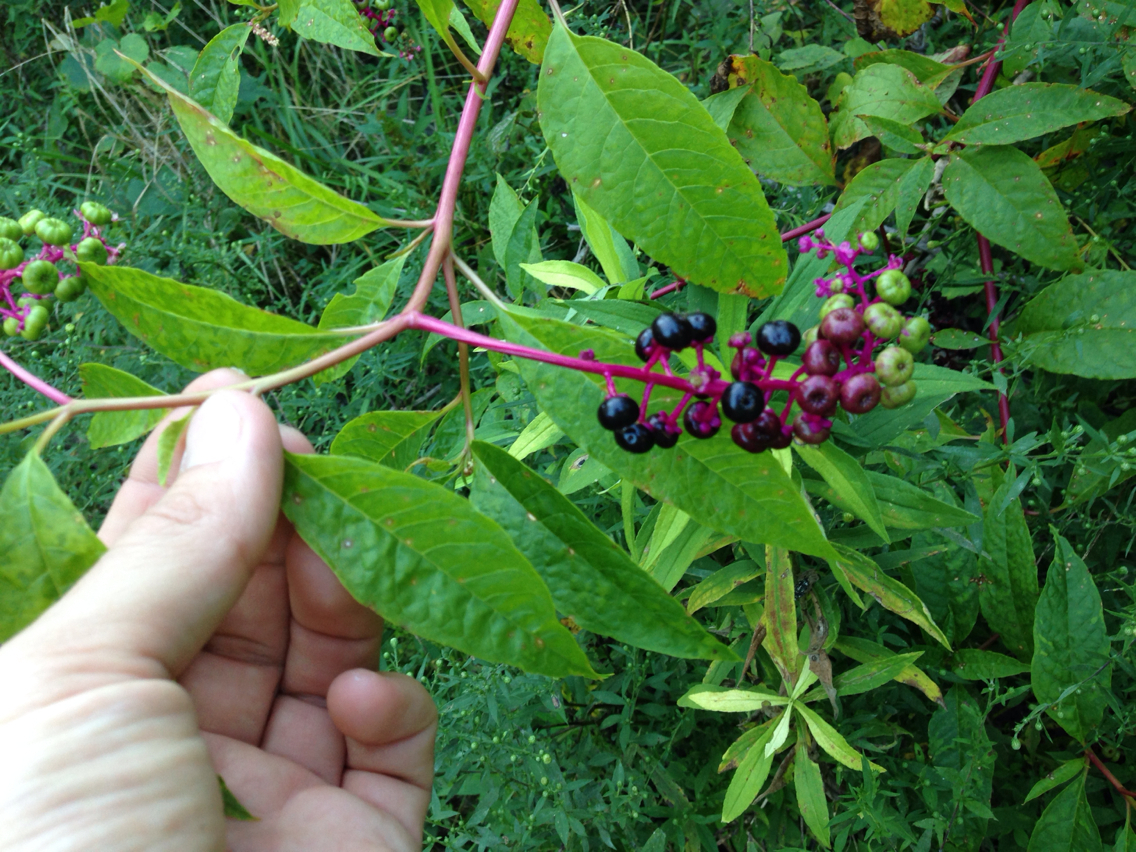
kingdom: Plantae
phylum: Tracheophyta
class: Magnoliopsida
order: Caryophyllales
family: Phytolaccaceae
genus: Phytolacca
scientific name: Phytolacca americana
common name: American pokeweed
